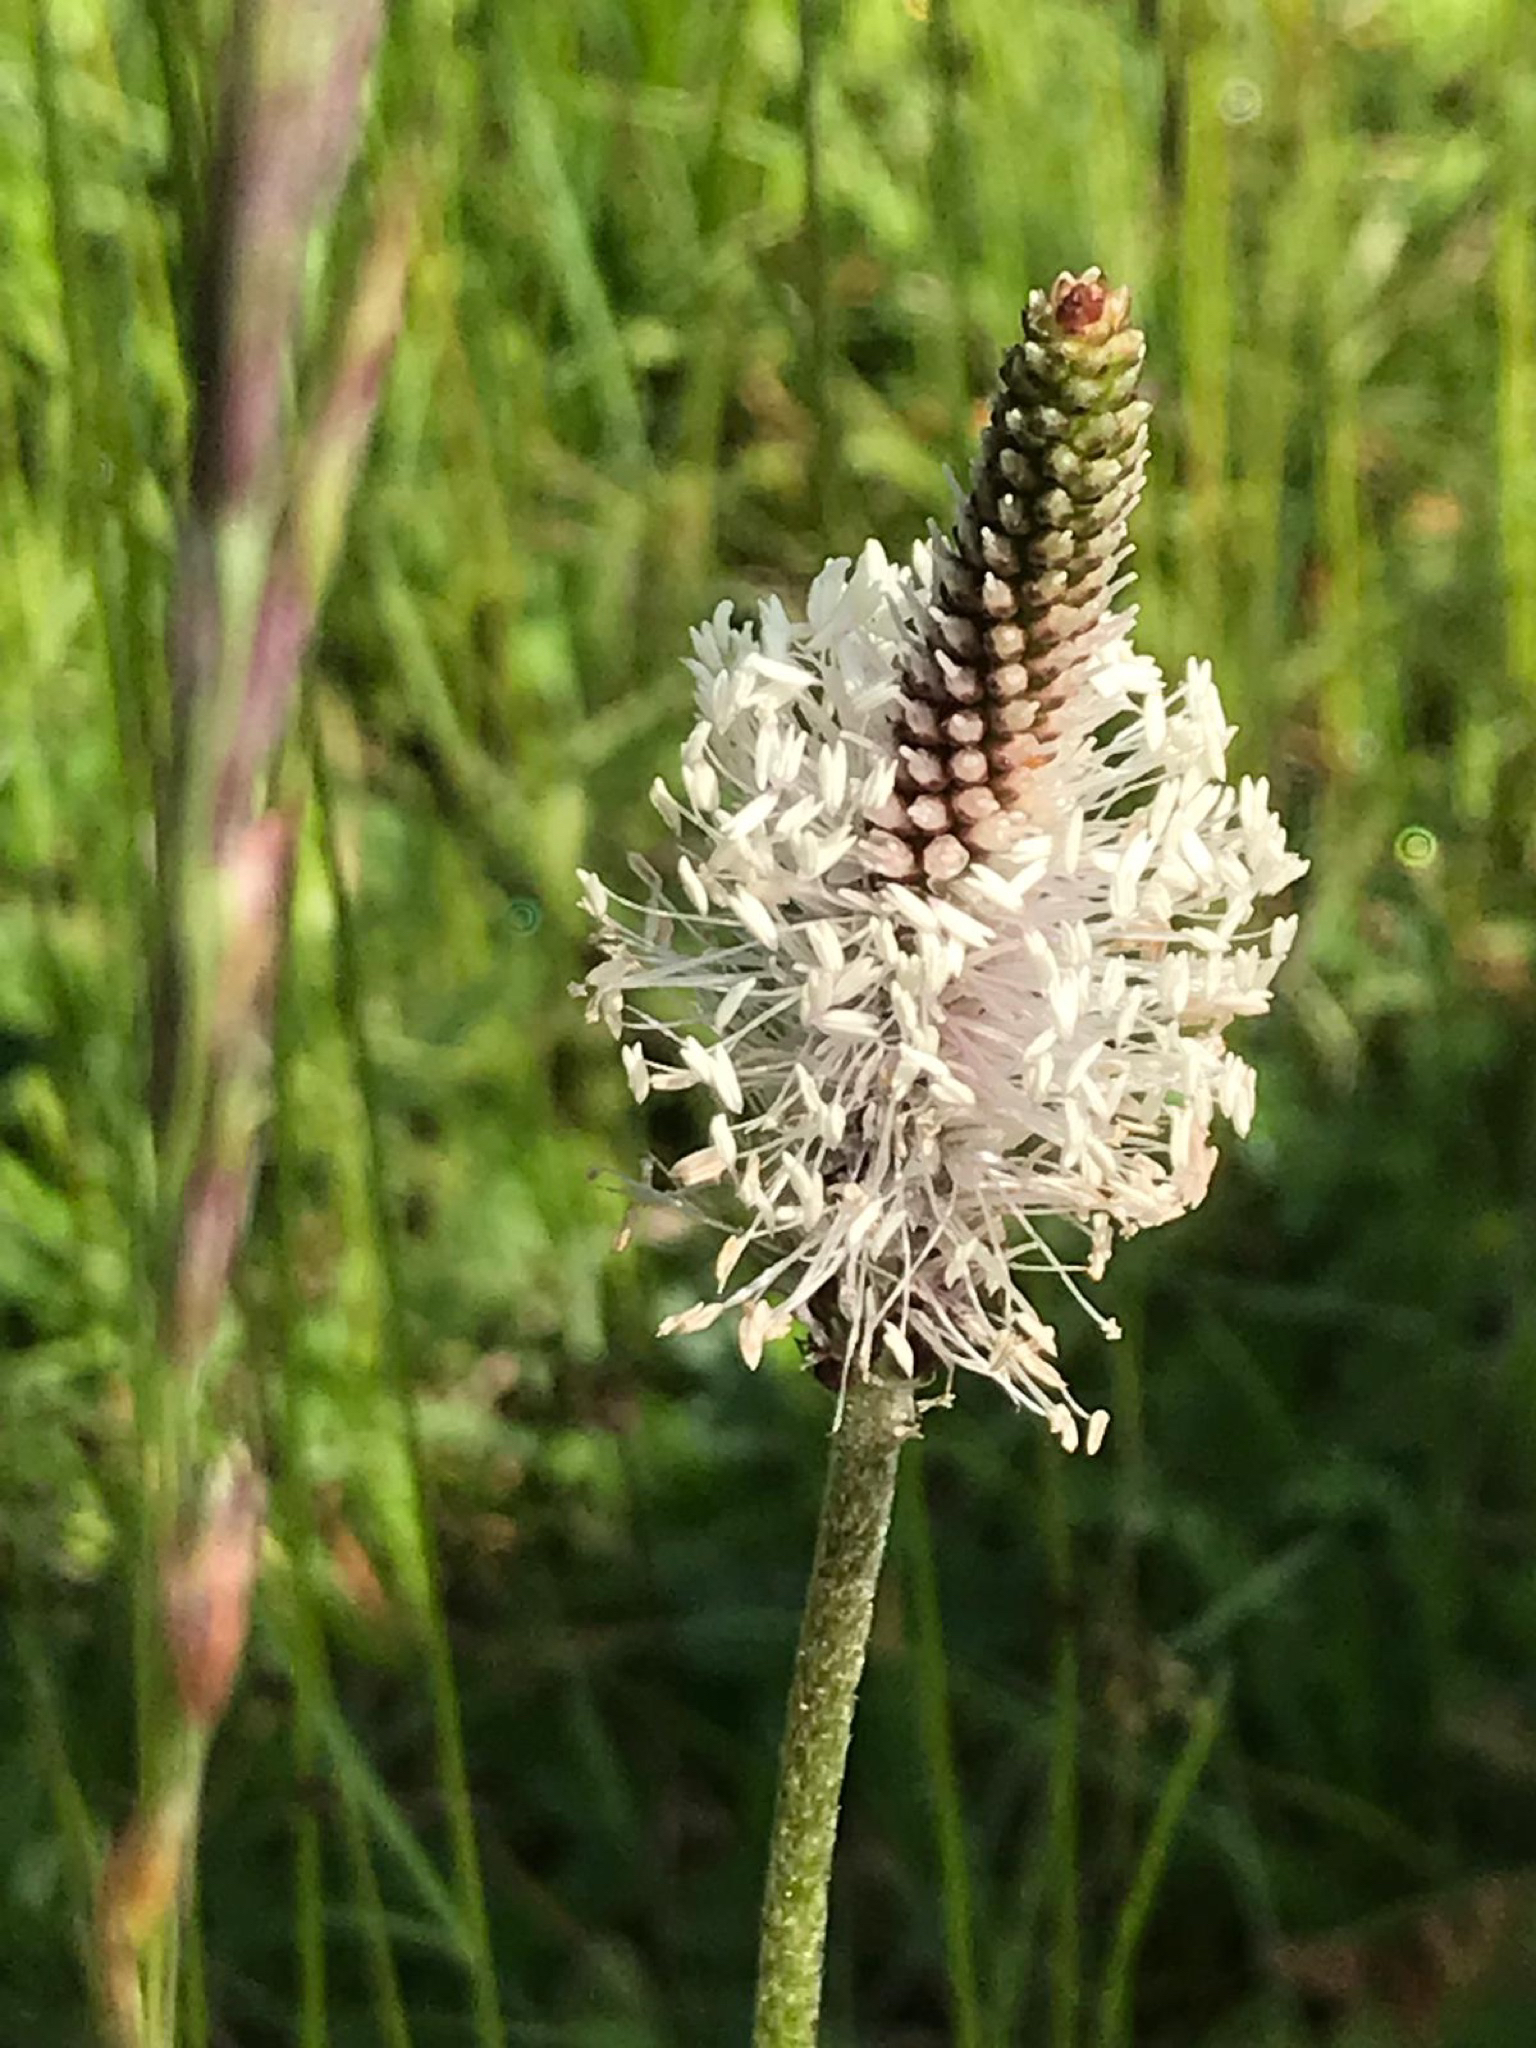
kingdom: Plantae
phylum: Tracheophyta
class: Magnoliopsida
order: Lamiales
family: Plantaginaceae
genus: Plantago
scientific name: Plantago media
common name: Hoary plantain
